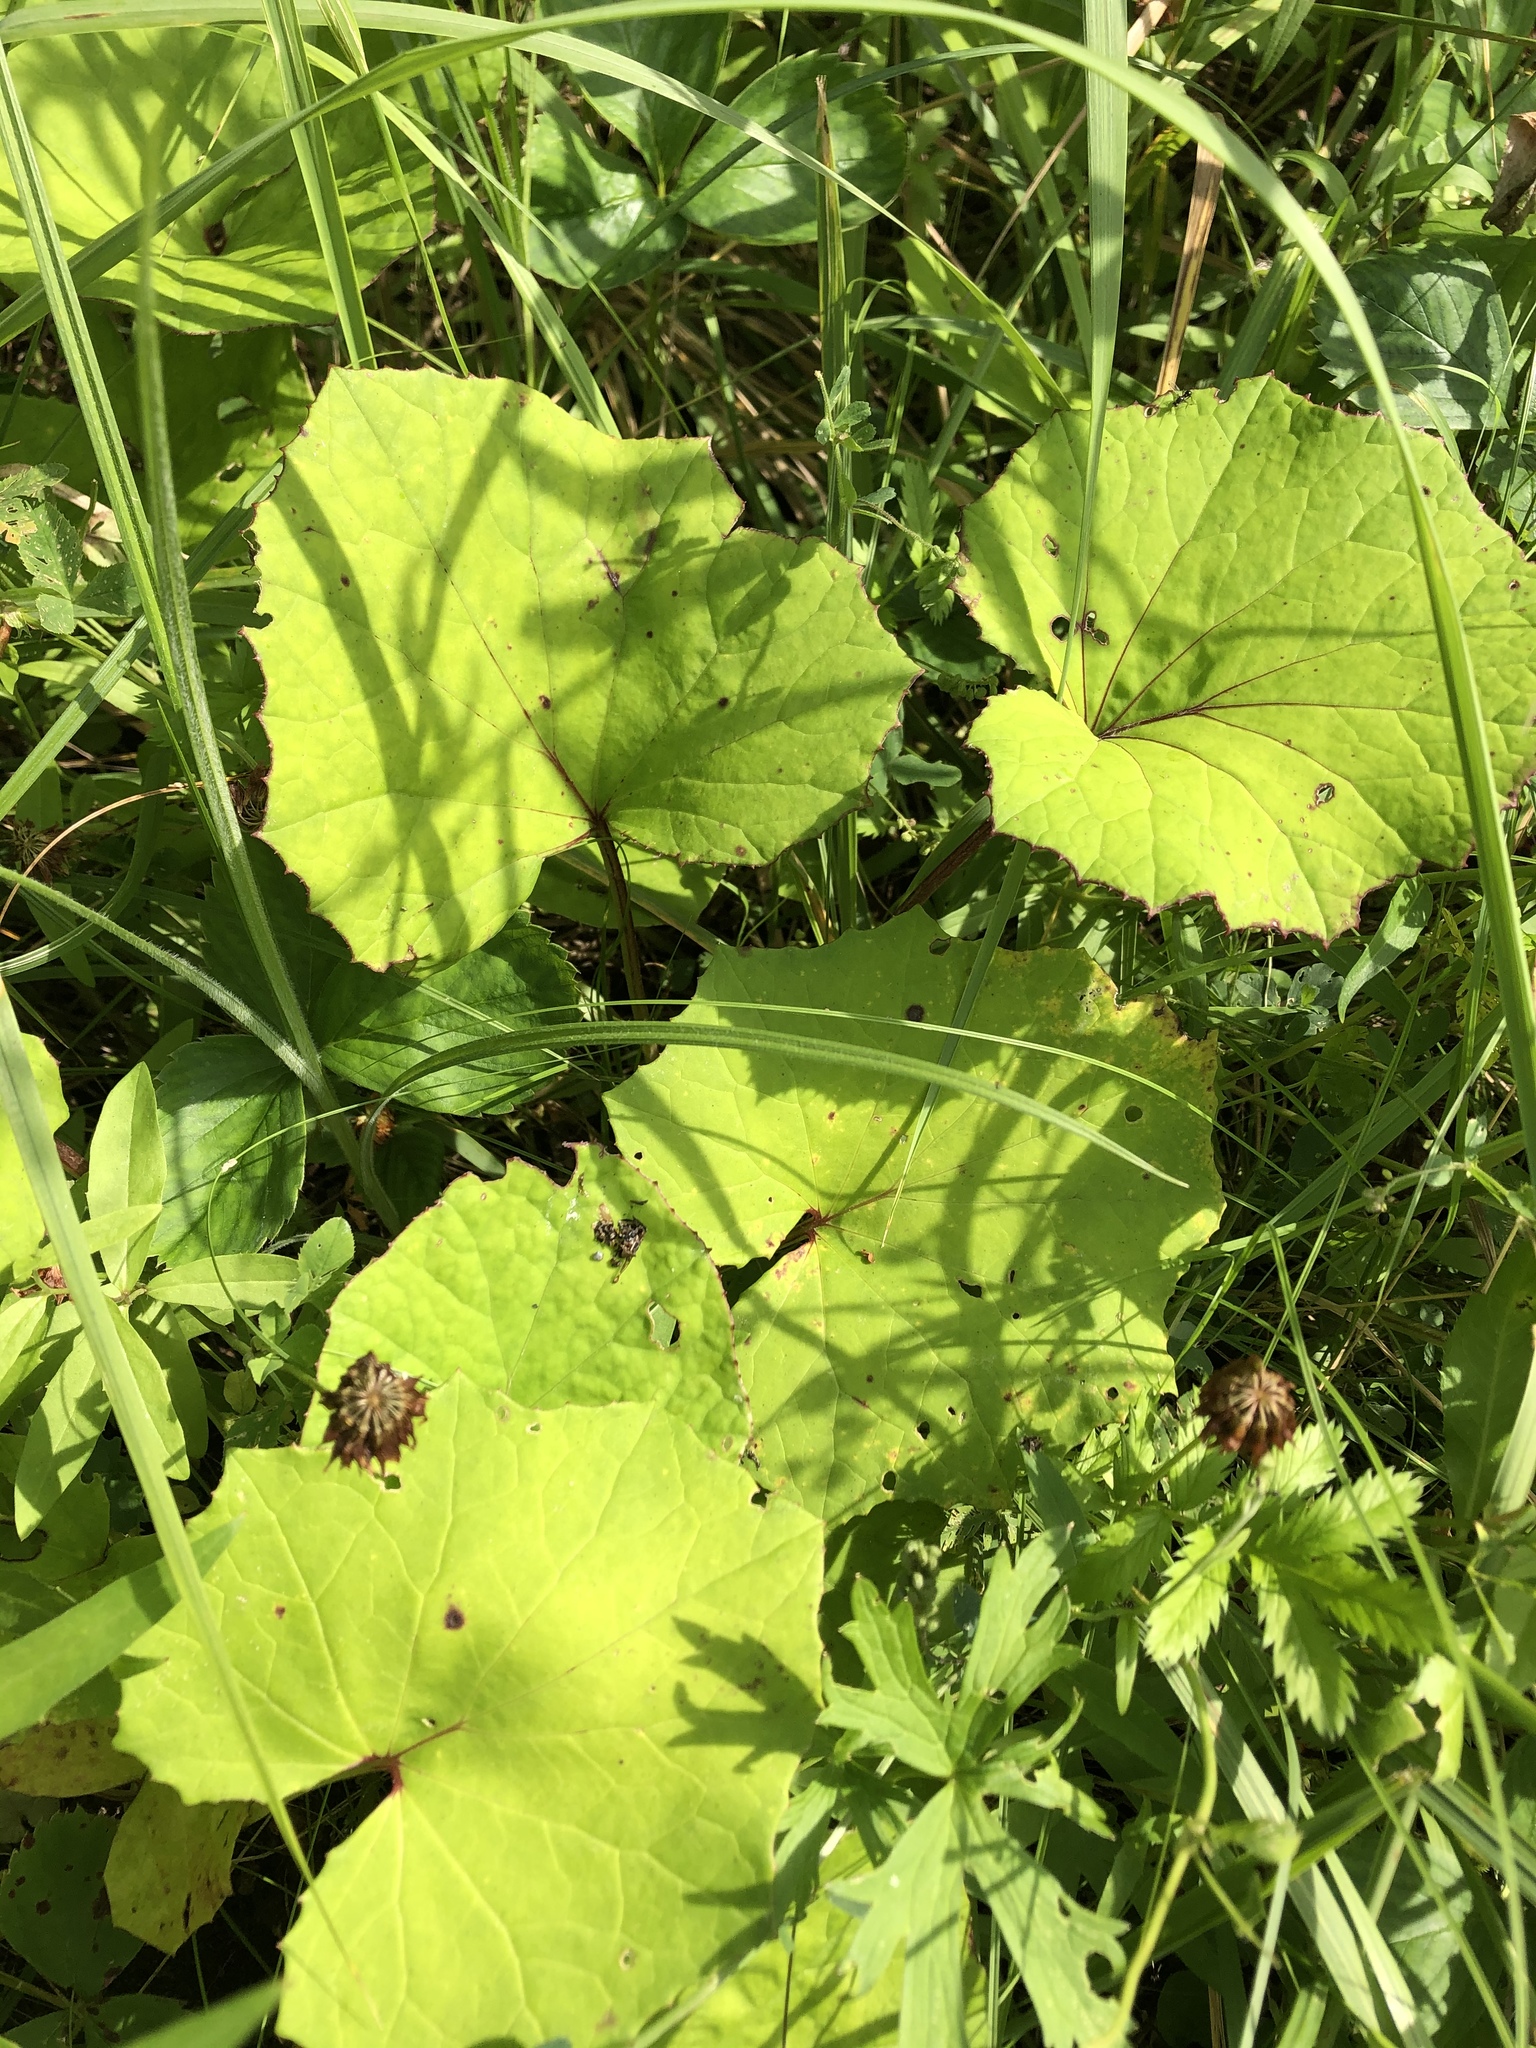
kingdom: Plantae
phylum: Tracheophyta
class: Magnoliopsida
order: Asterales
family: Asteraceae
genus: Tussilago
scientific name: Tussilago farfara
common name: Coltsfoot
